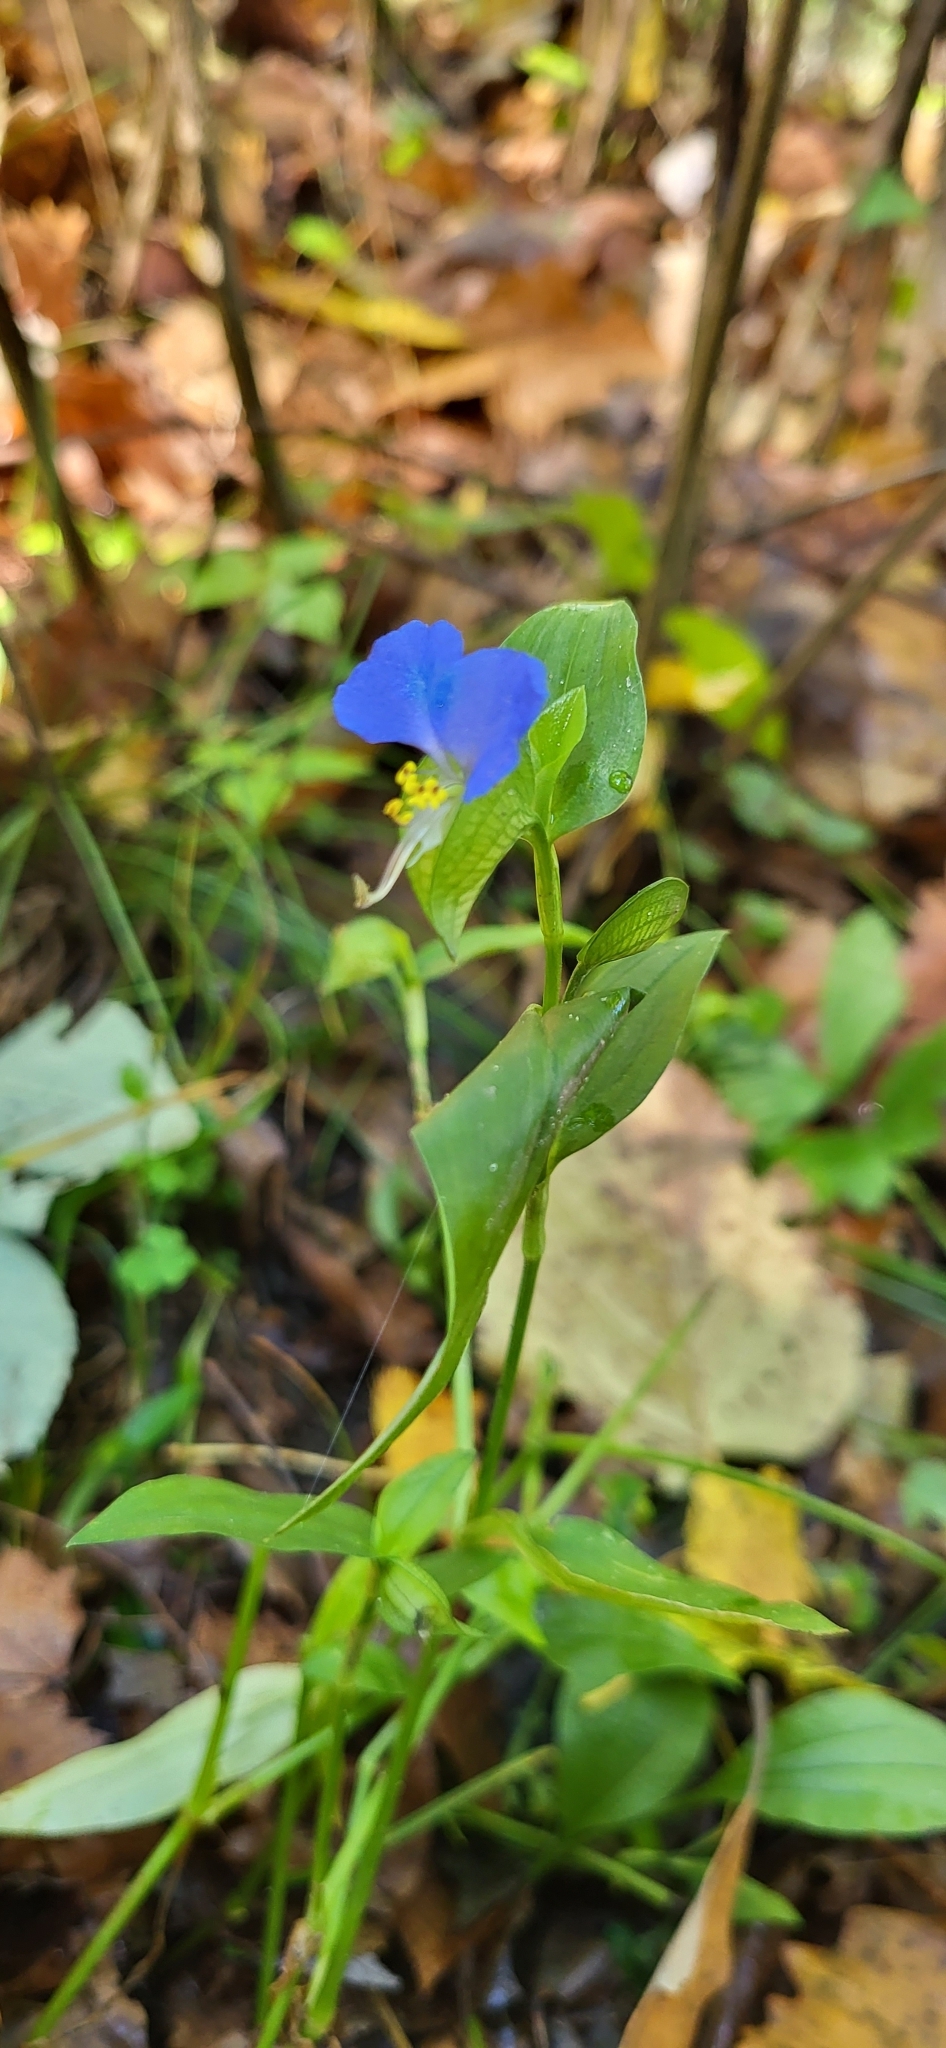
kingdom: Plantae
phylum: Tracheophyta
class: Liliopsida
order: Commelinales
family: Commelinaceae
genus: Commelina
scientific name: Commelina communis
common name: Asiatic dayflower
